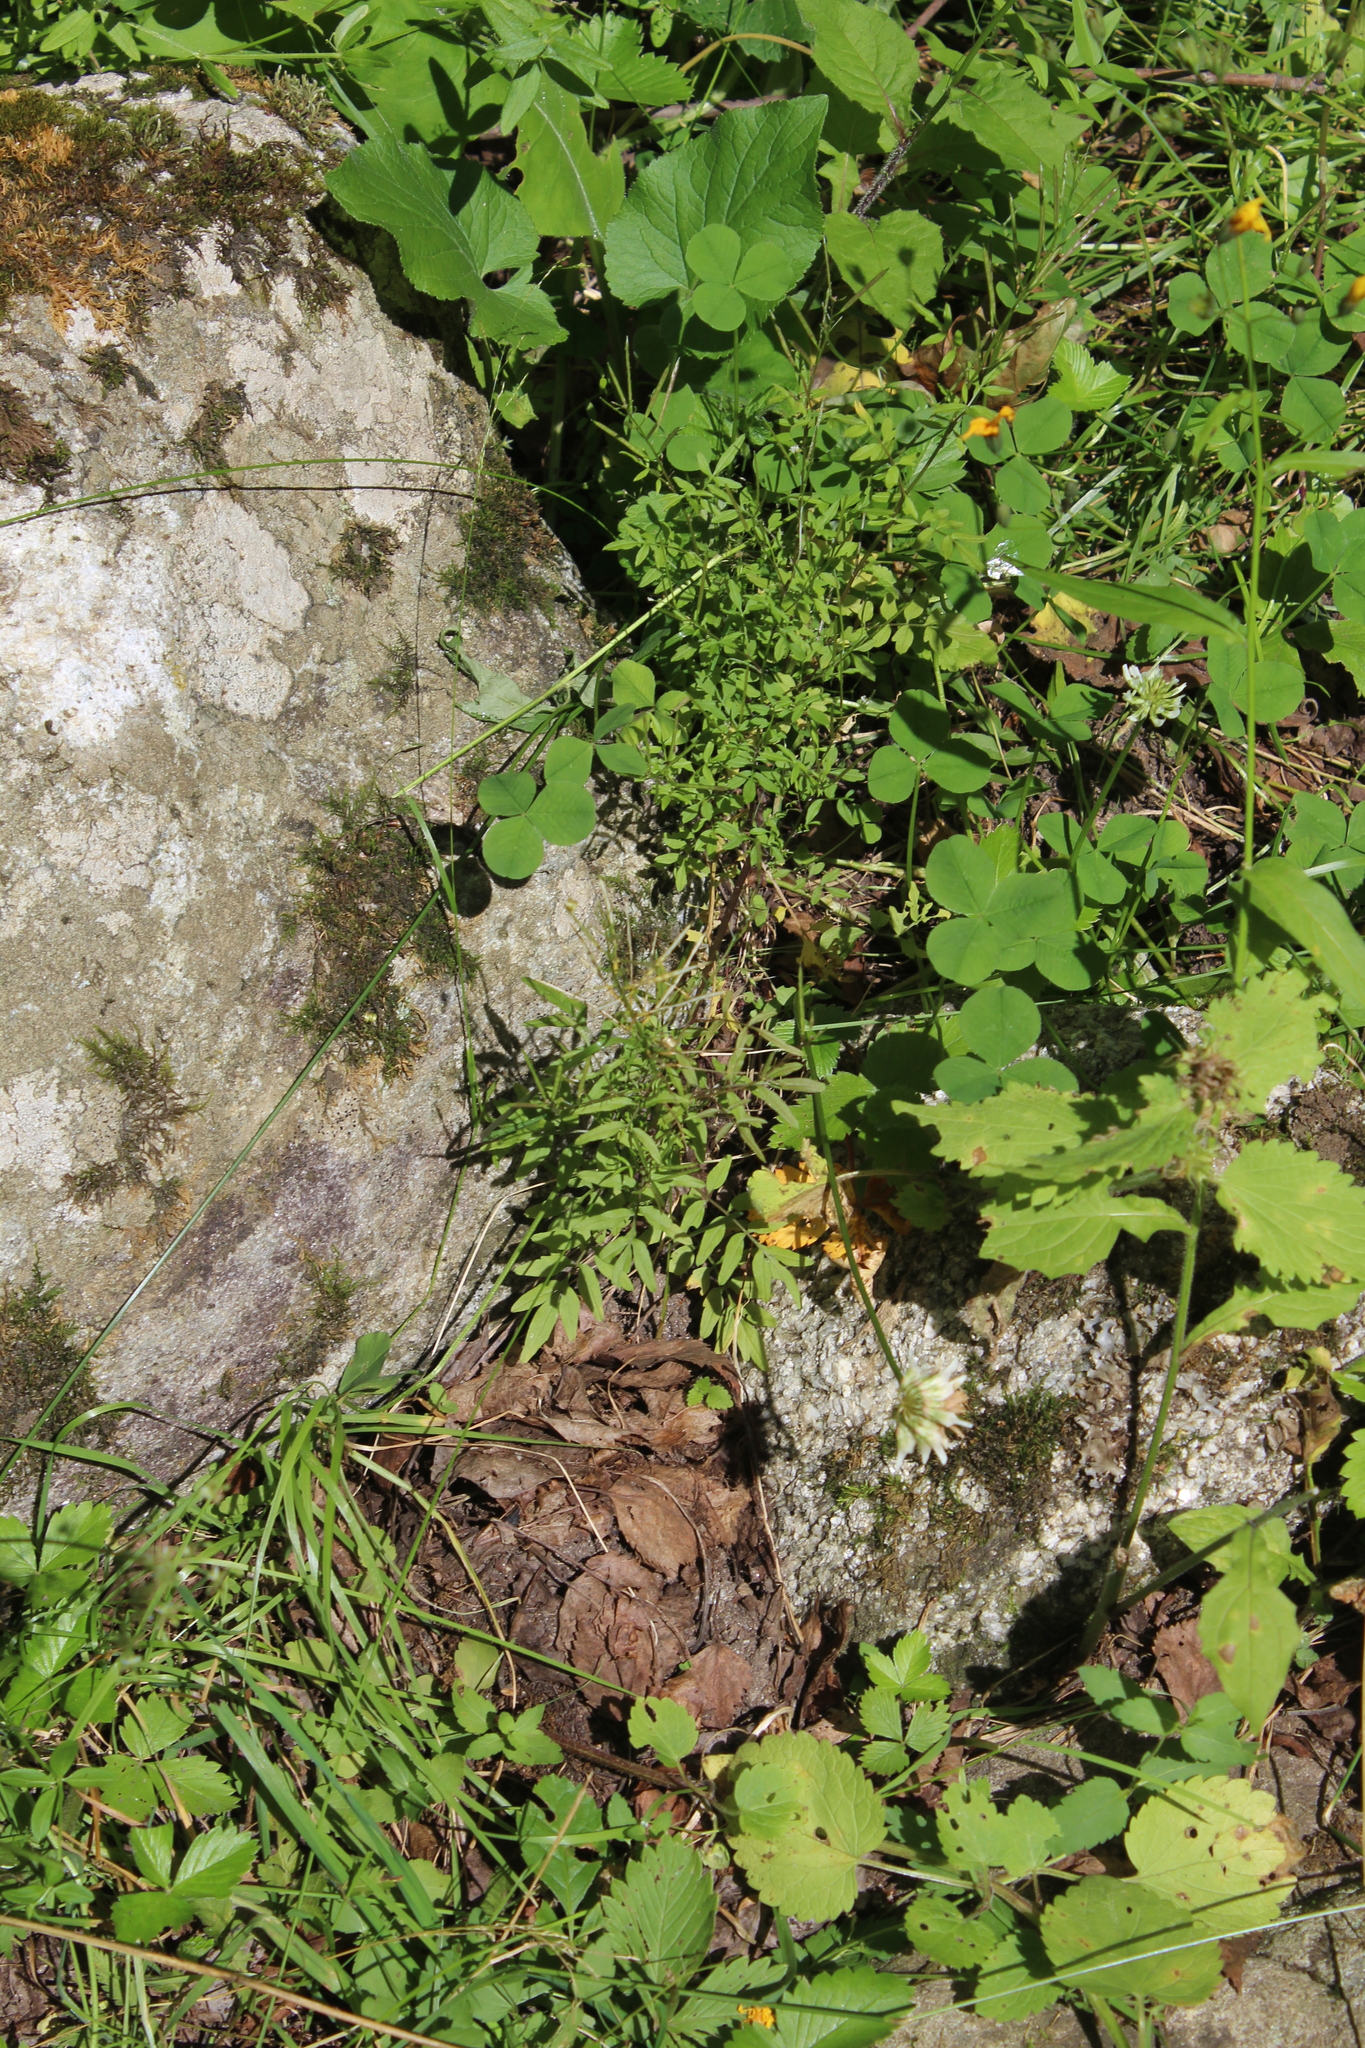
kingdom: Plantae
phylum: Tracheophyta
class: Magnoliopsida
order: Brassicales
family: Brassicaceae
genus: Cardamine
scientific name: Cardamine impatiens
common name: Narrow-leaved bitter-cress
